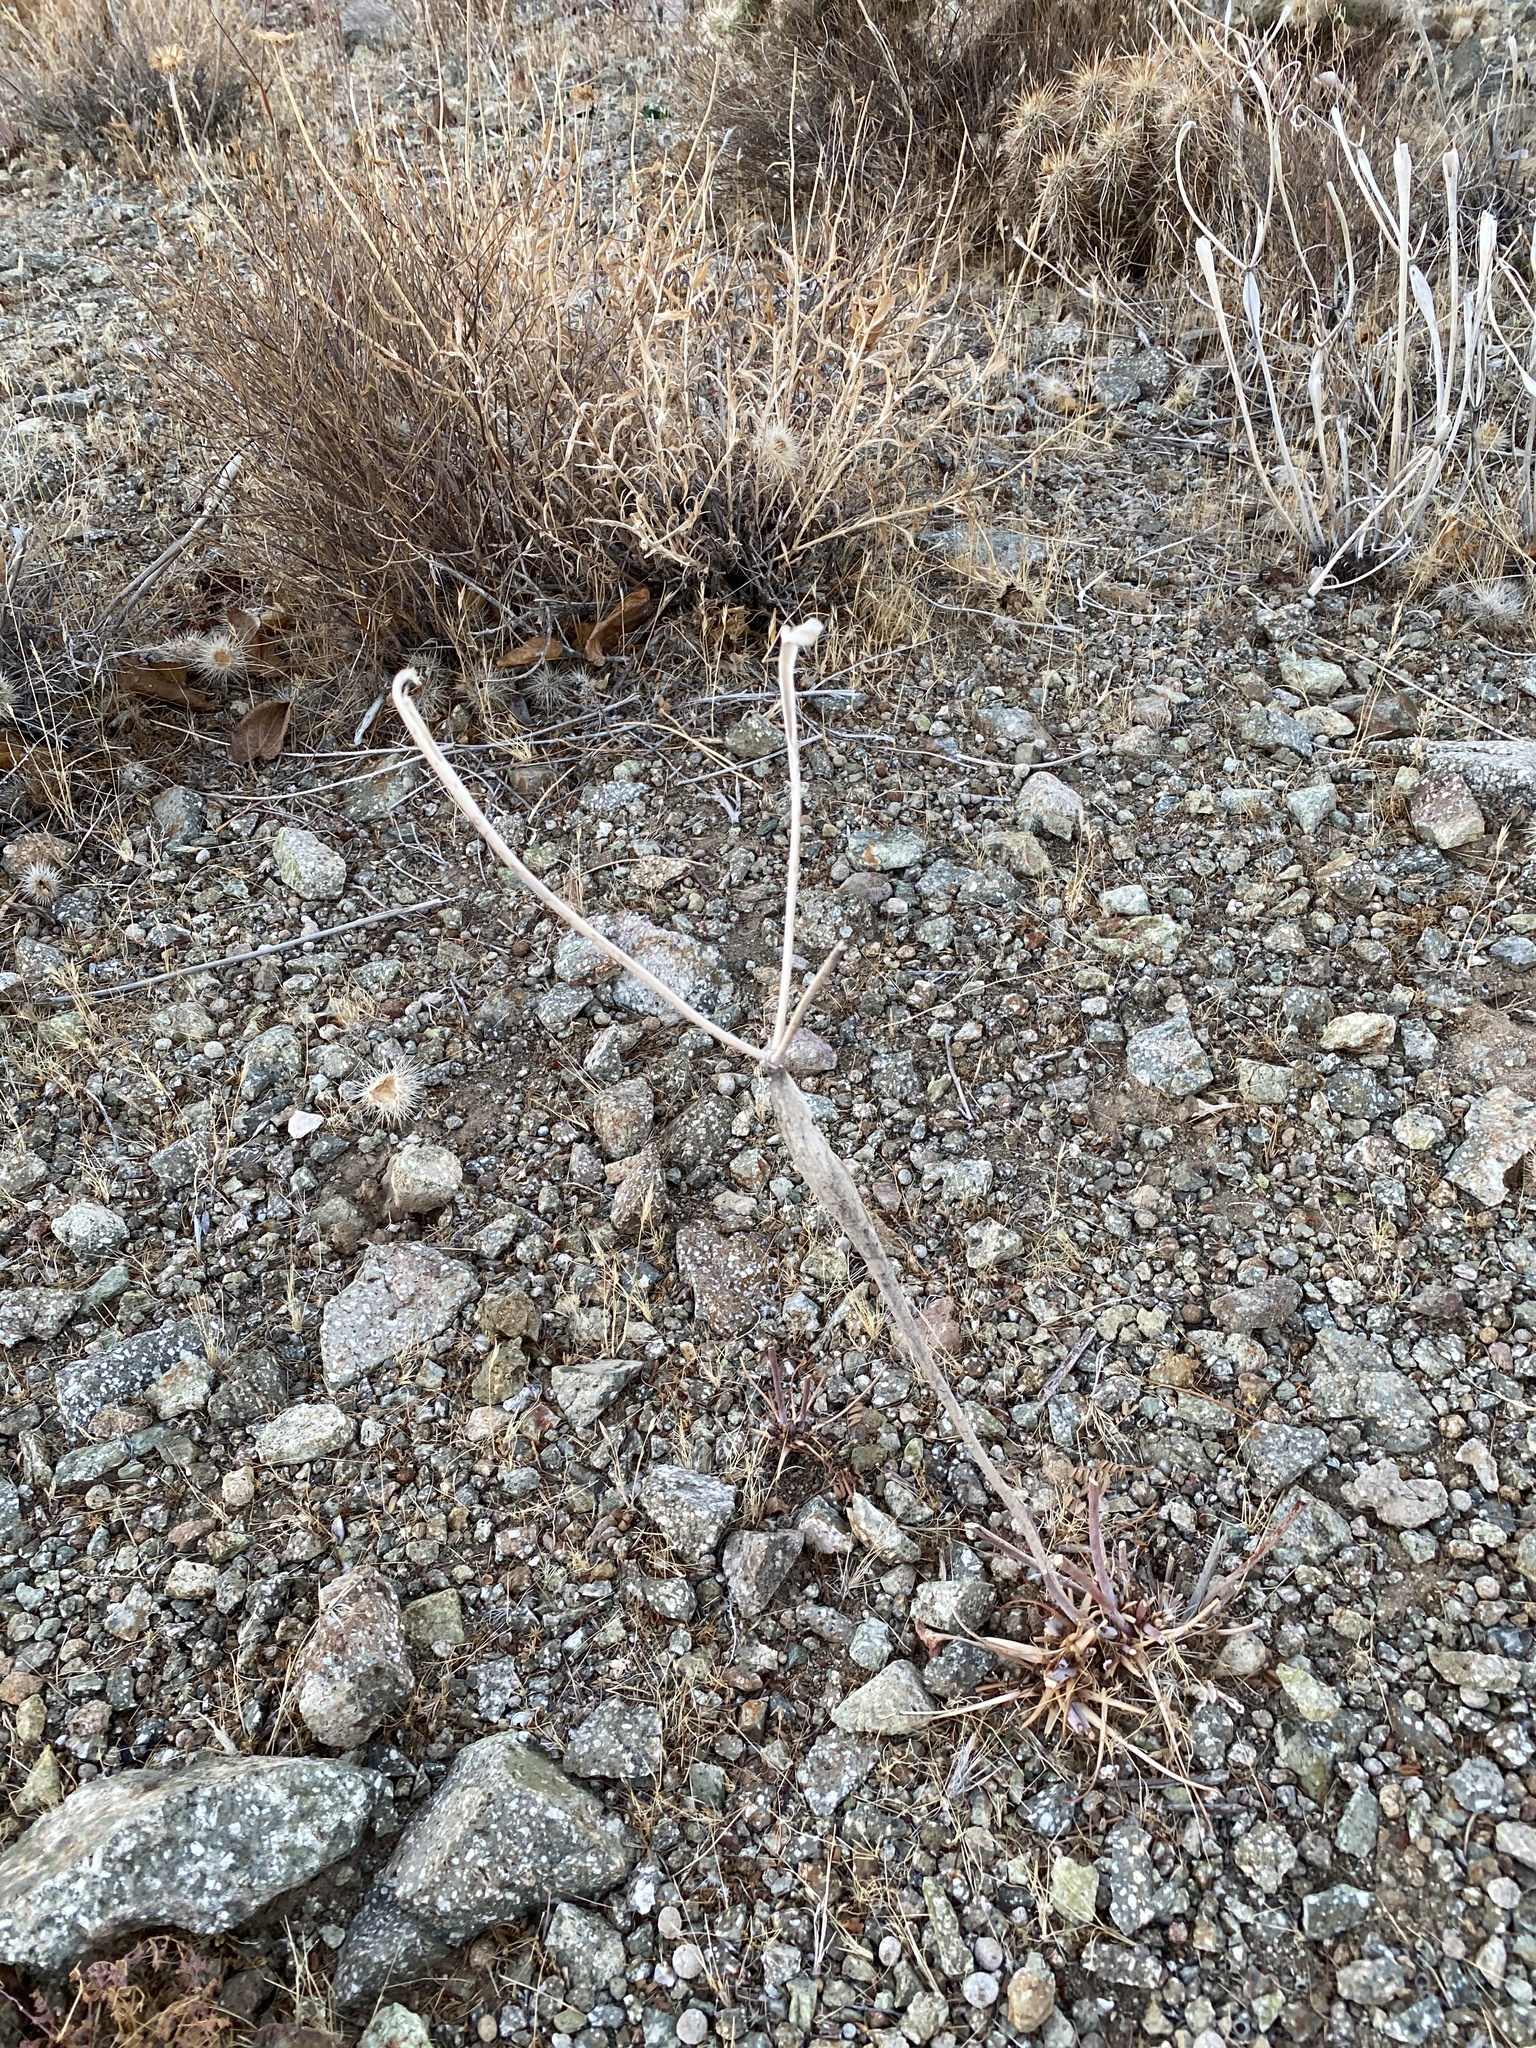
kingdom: Plantae
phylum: Tracheophyta
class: Magnoliopsida
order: Caryophyllales
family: Polygonaceae
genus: Eriogonum
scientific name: Eriogonum inflatum
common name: Desert trumpet
